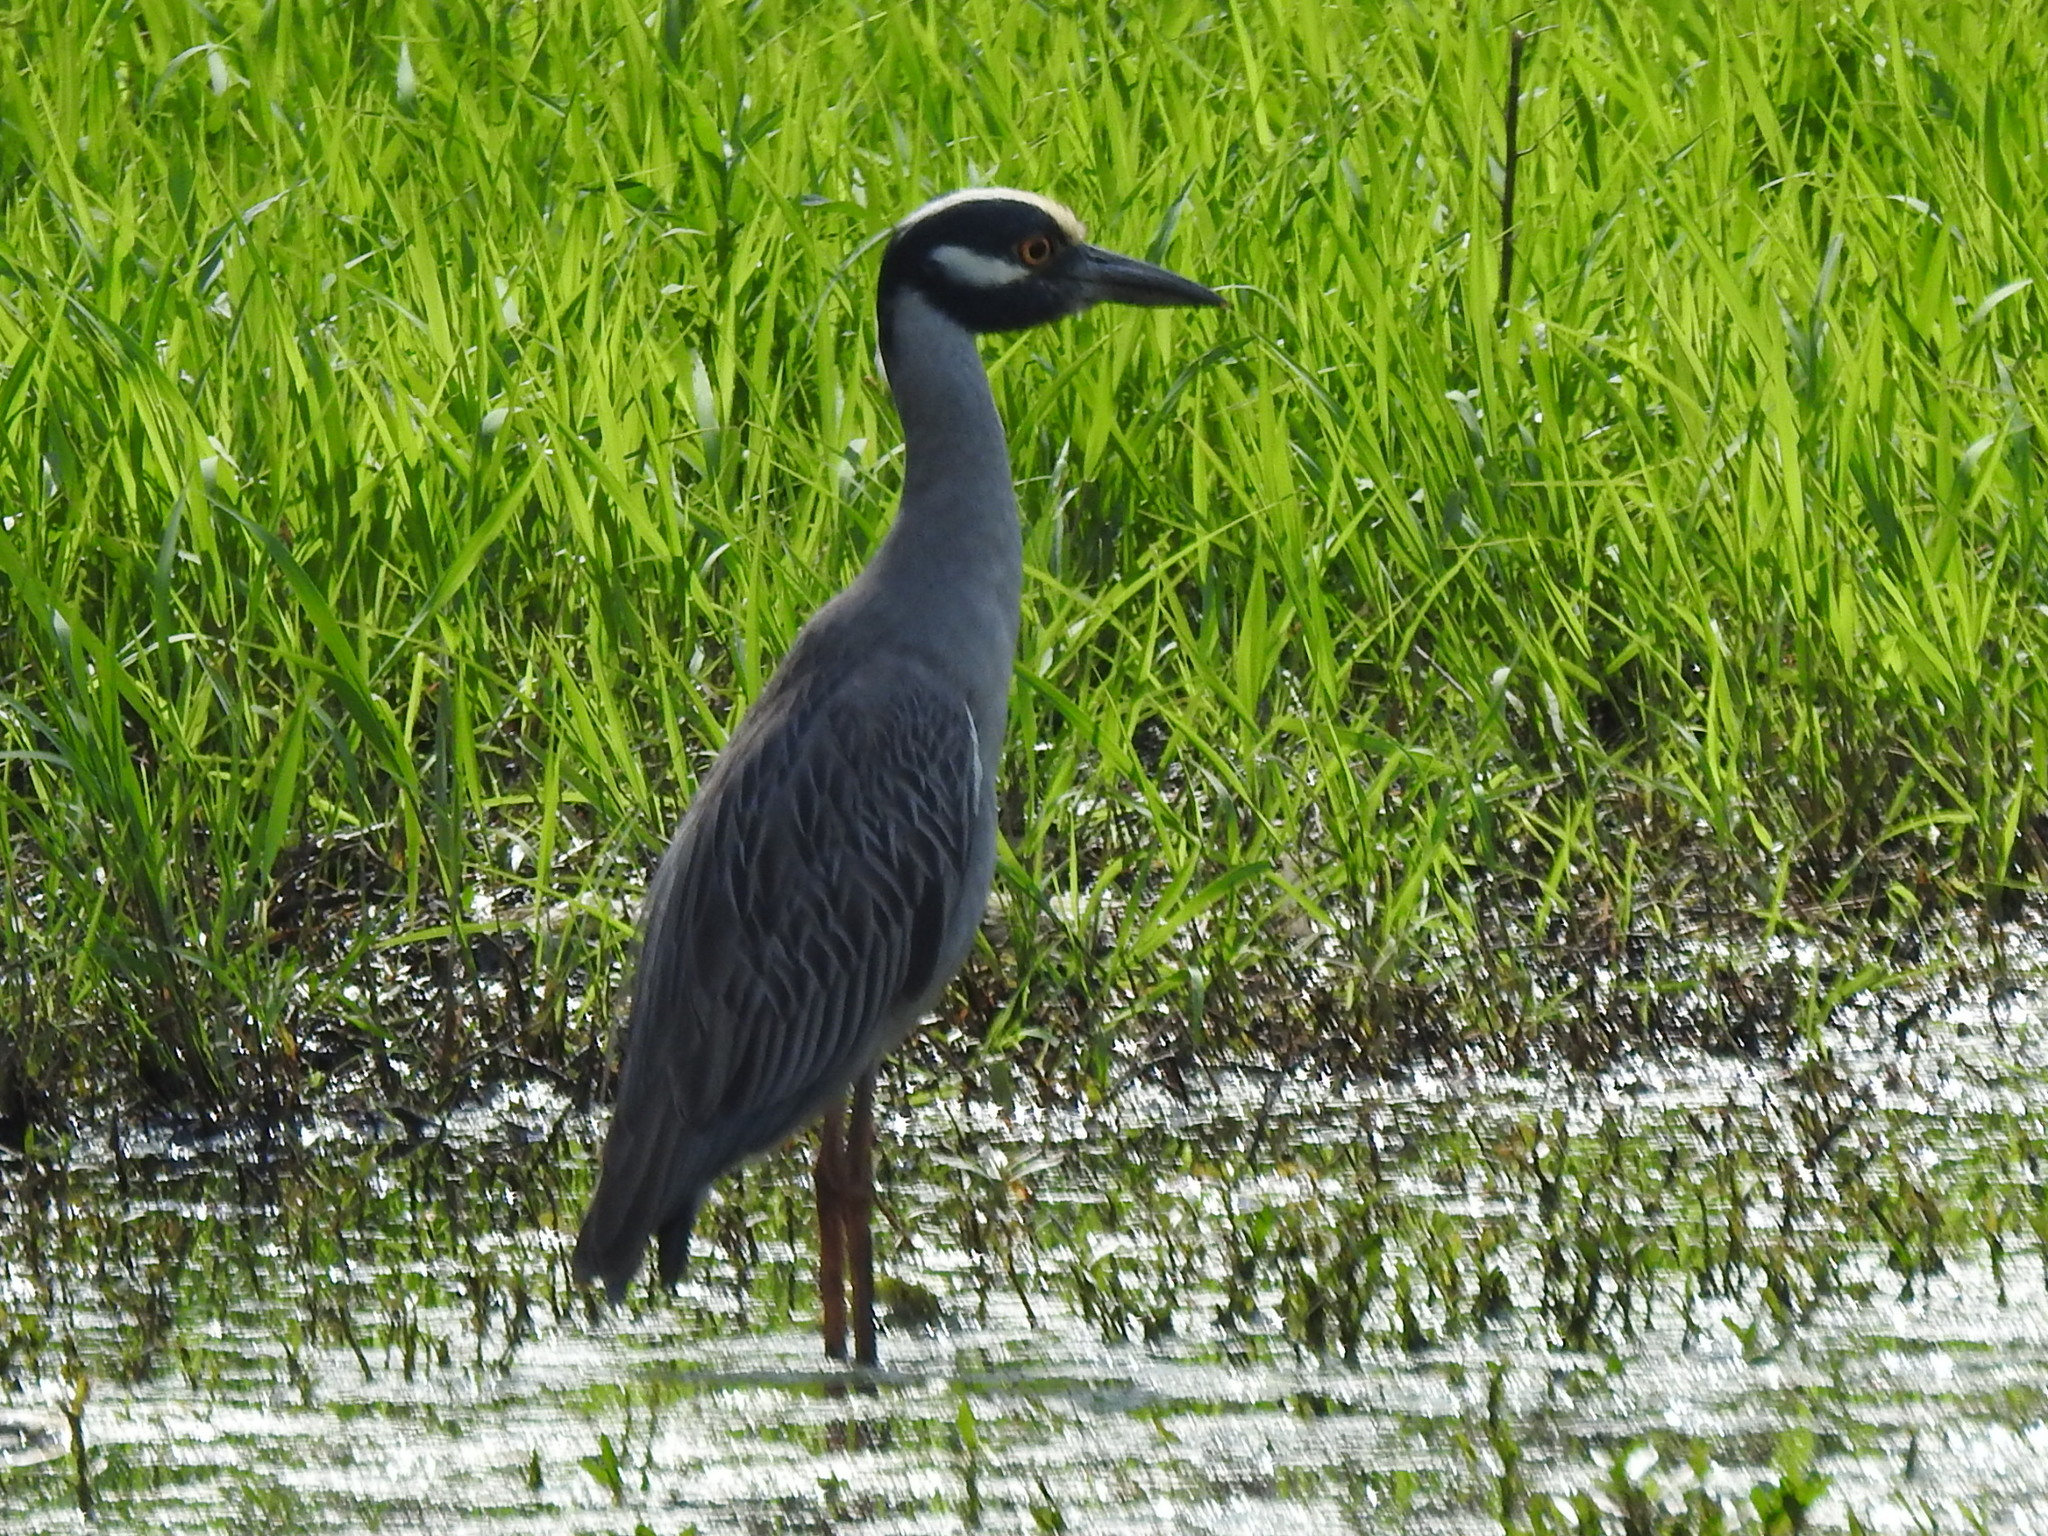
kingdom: Animalia
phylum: Chordata
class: Aves
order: Pelecaniformes
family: Ardeidae
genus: Nyctanassa
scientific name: Nyctanassa violacea
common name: Yellow-crowned night heron
